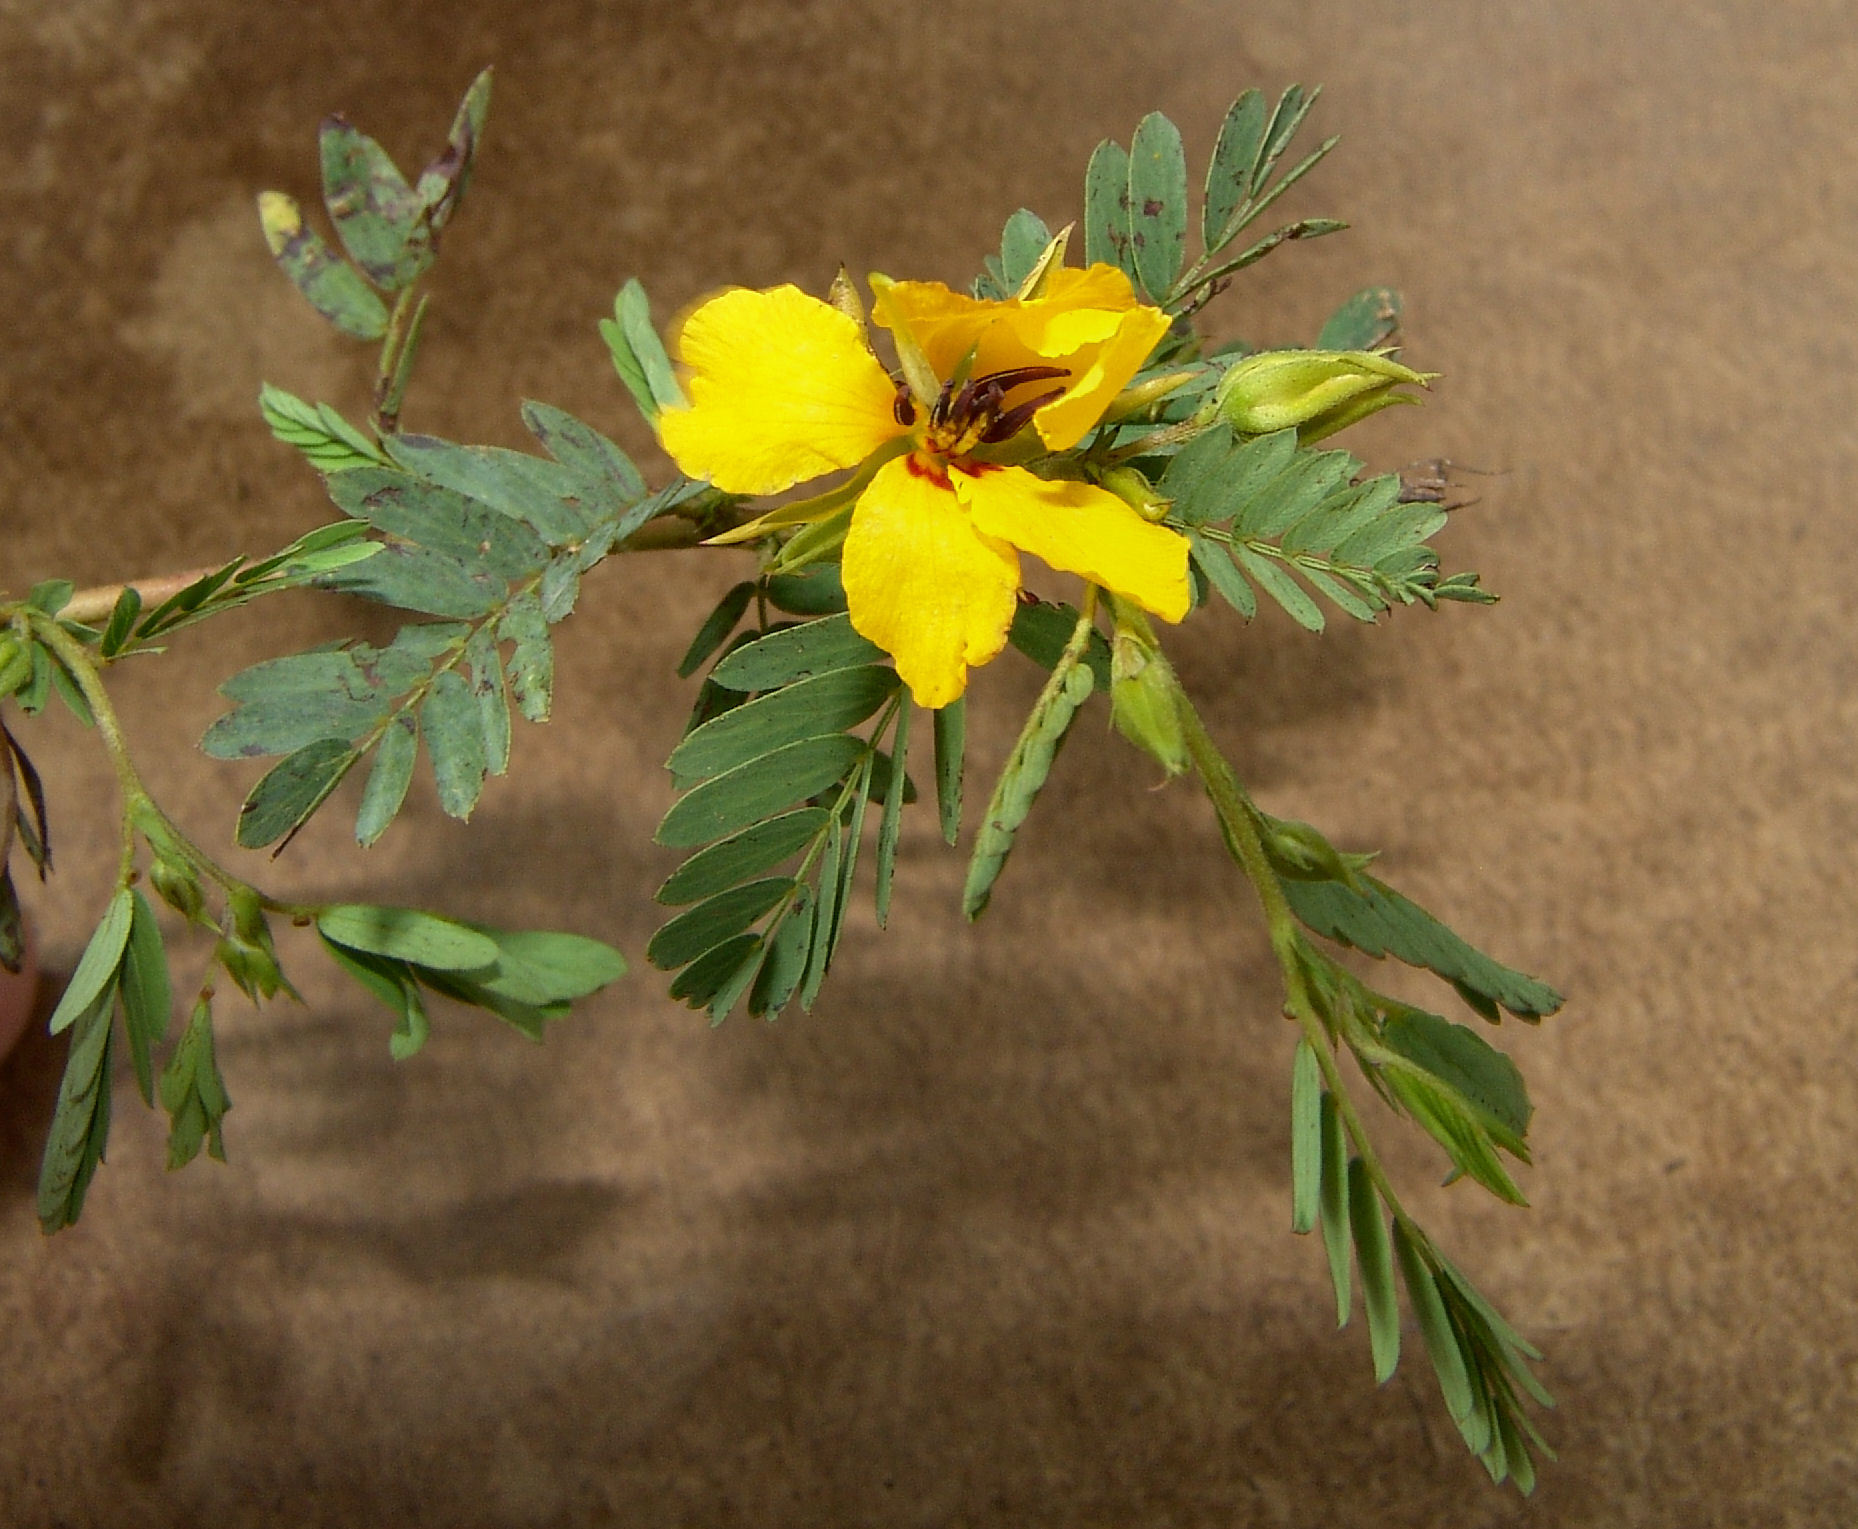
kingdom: Plantae
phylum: Tracheophyta
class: Magnoliopsida
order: Fabales
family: Fabaceae
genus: Chamaecrista
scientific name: Chamaecrista fasciculata
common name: Golden cassia
